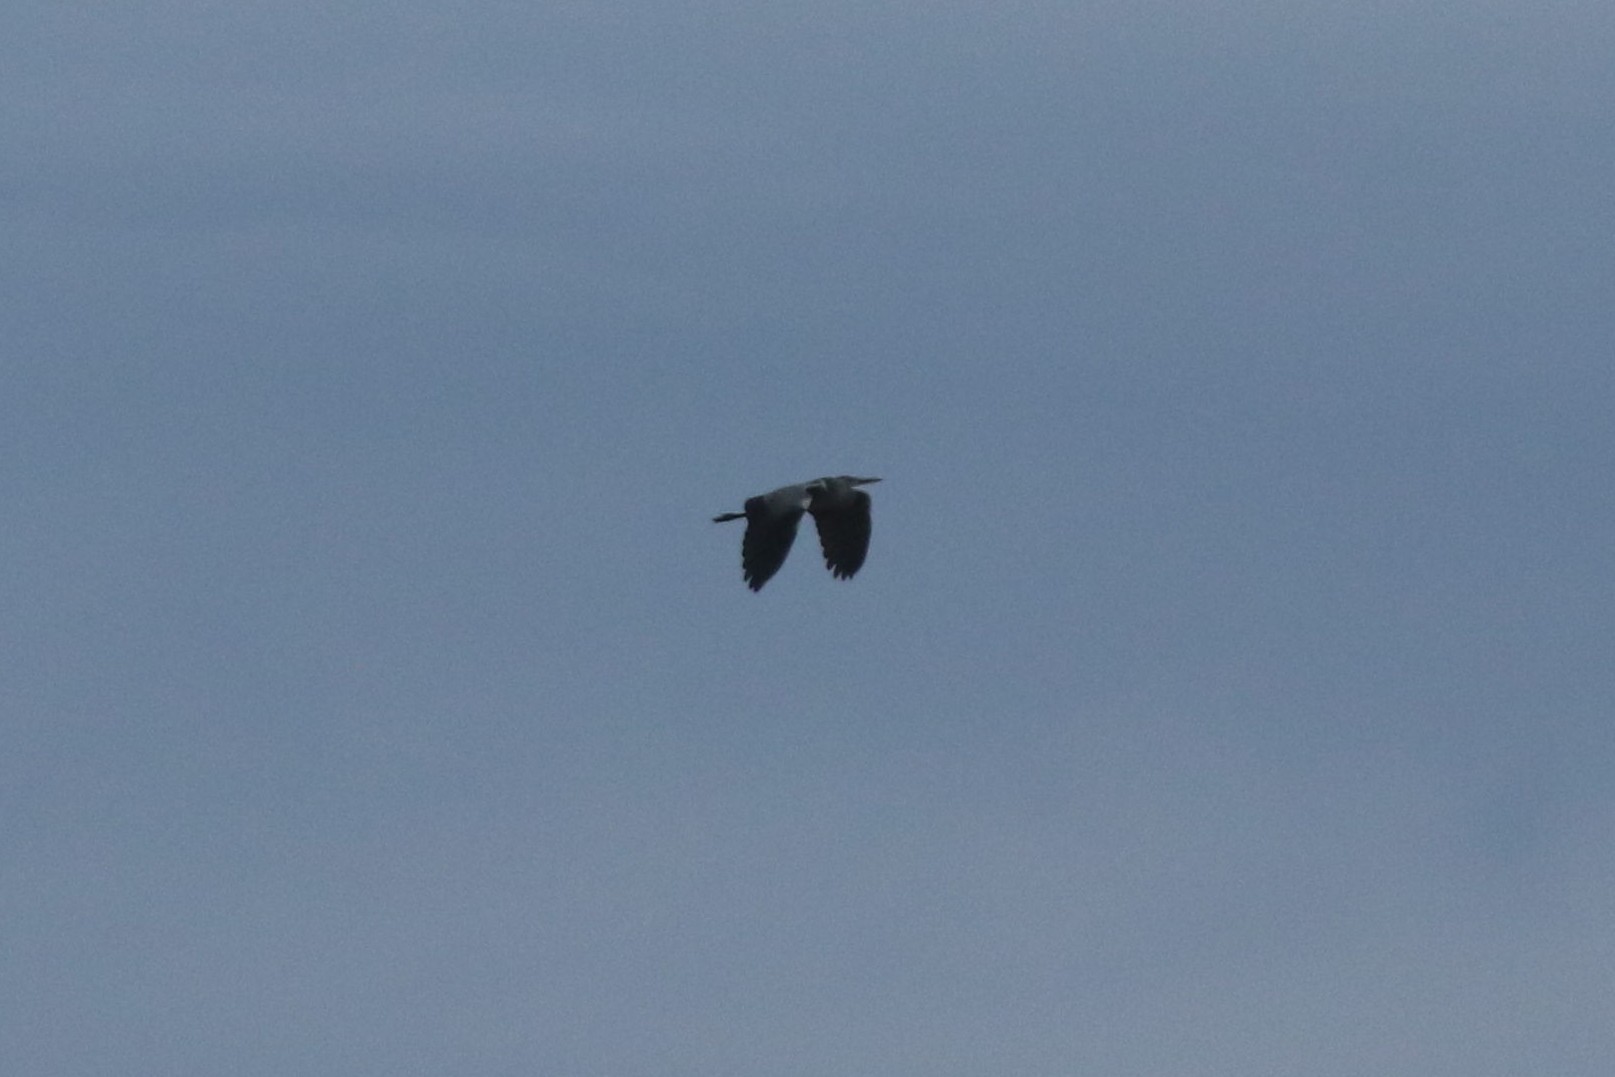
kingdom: Animalia
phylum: Chordata
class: Aves
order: Pelecaniformes
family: Ardeidae
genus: Ardea
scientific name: Ardea cinerea
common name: Grey heron
